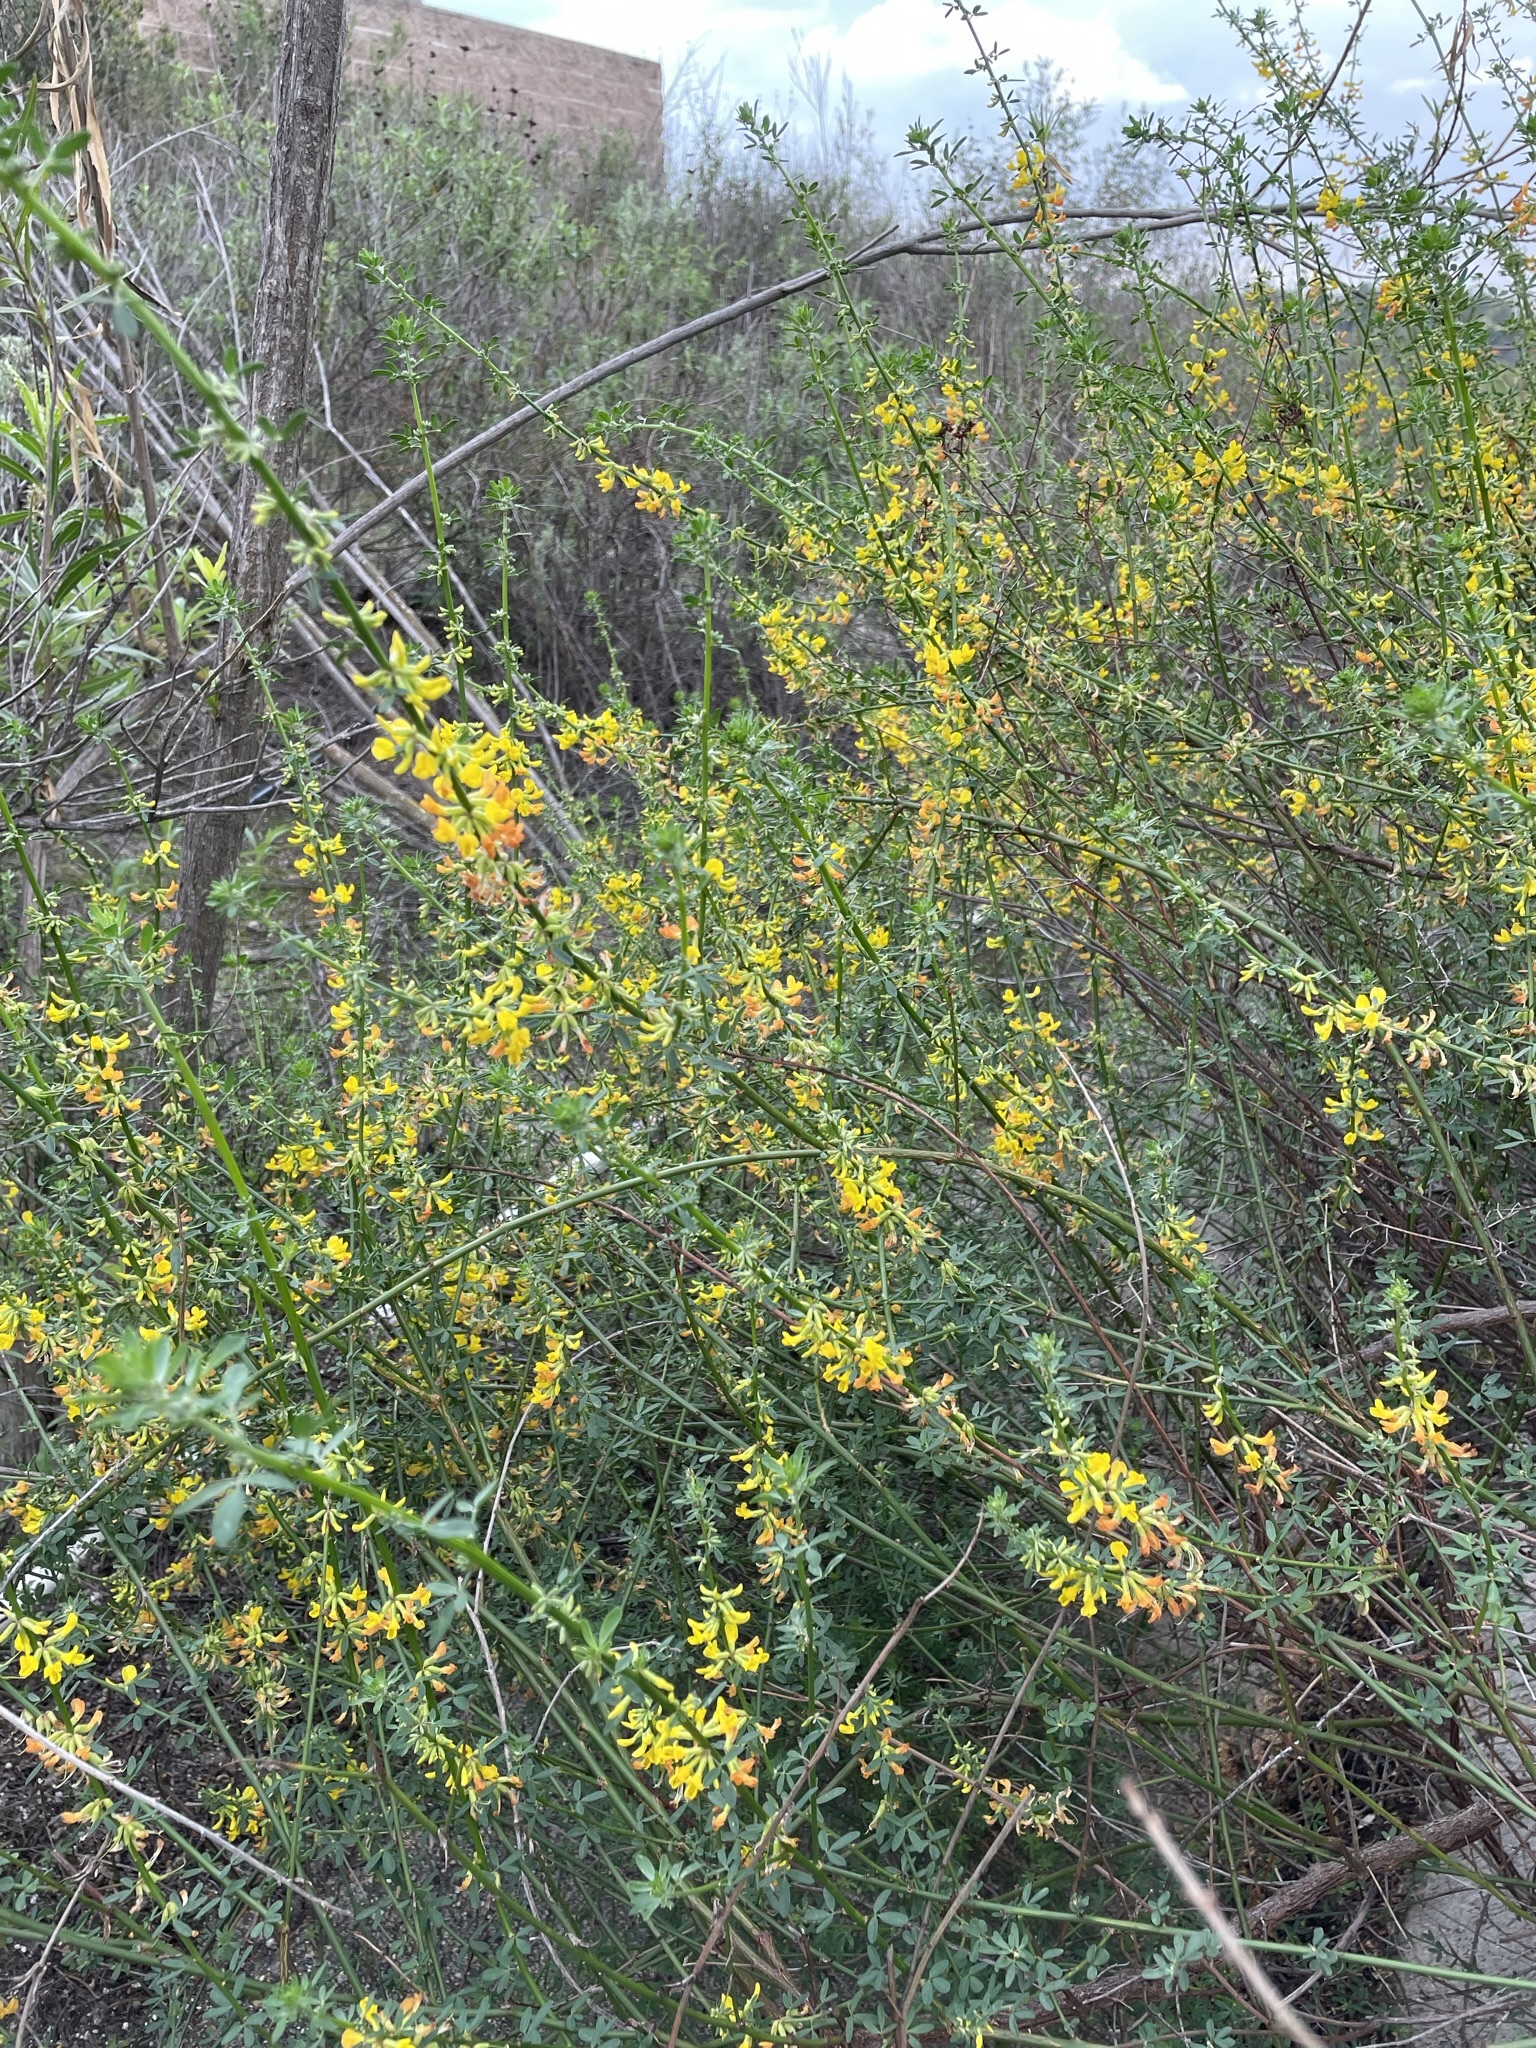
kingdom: Plantae
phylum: Tracheophyta
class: Magnoliopsida
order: Fabales
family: Fabaceae
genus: Acmispon
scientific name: Acmispon glaber
